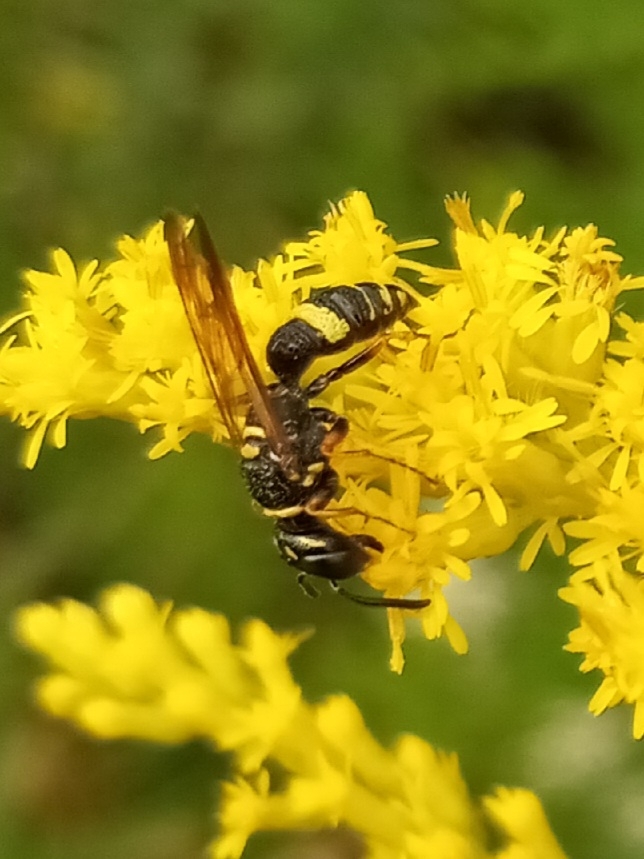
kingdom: Animalia
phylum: Arthropoda
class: Insecta
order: Hymenoptera
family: Crabronidae
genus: Philanthus
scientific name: Philanthus gibbosus
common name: Humped beewolf
